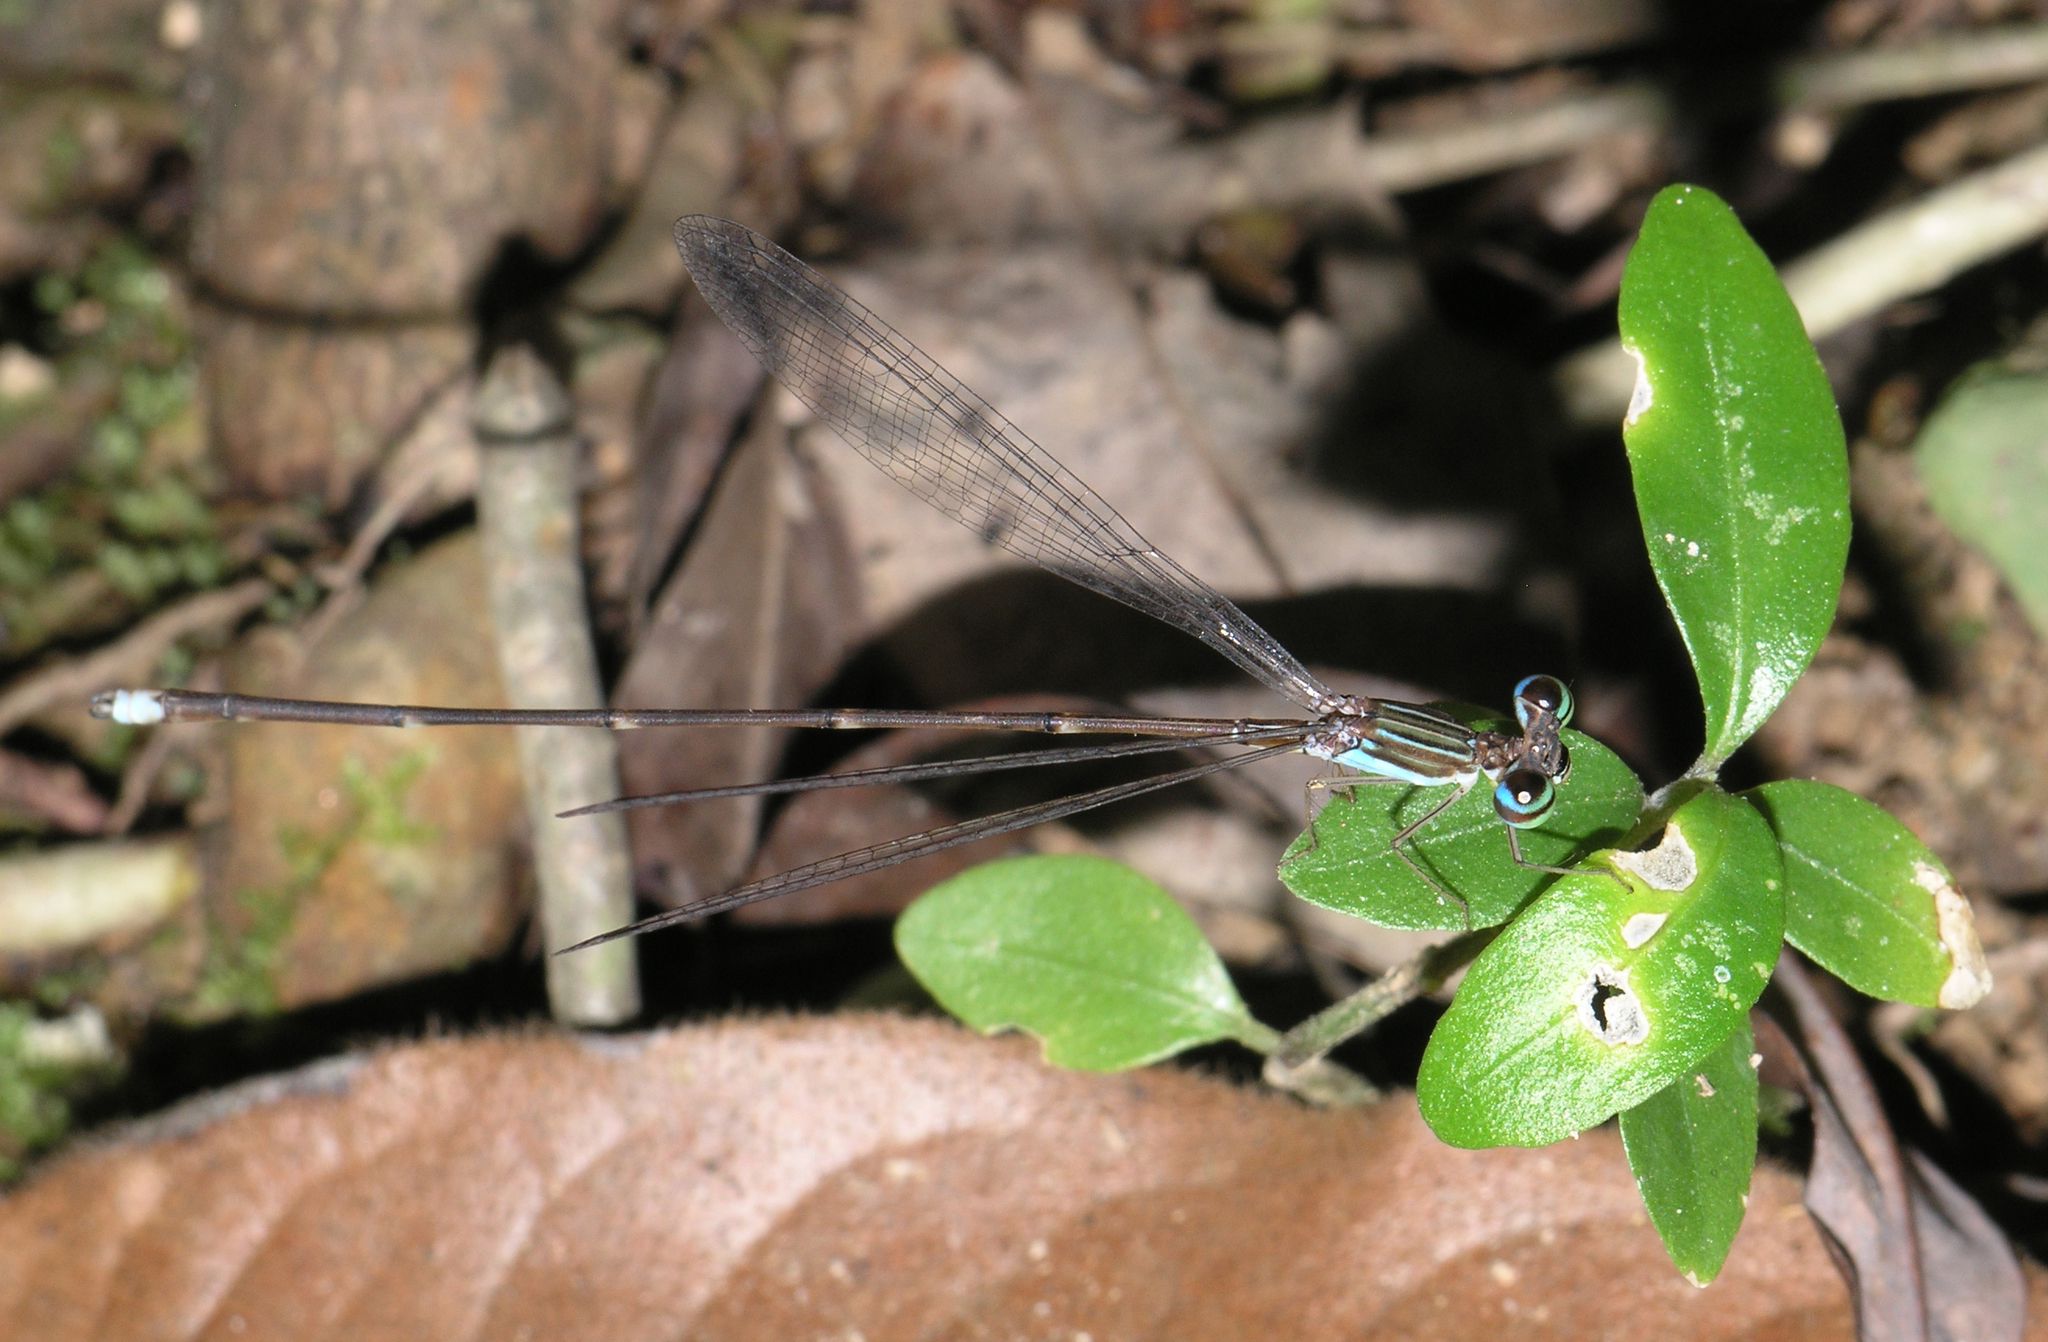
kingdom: Animalia
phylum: Arthropoda
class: Insecta
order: Odonata
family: Platycnemididae
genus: Coeliccia
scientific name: Coeliccia kazukoae
